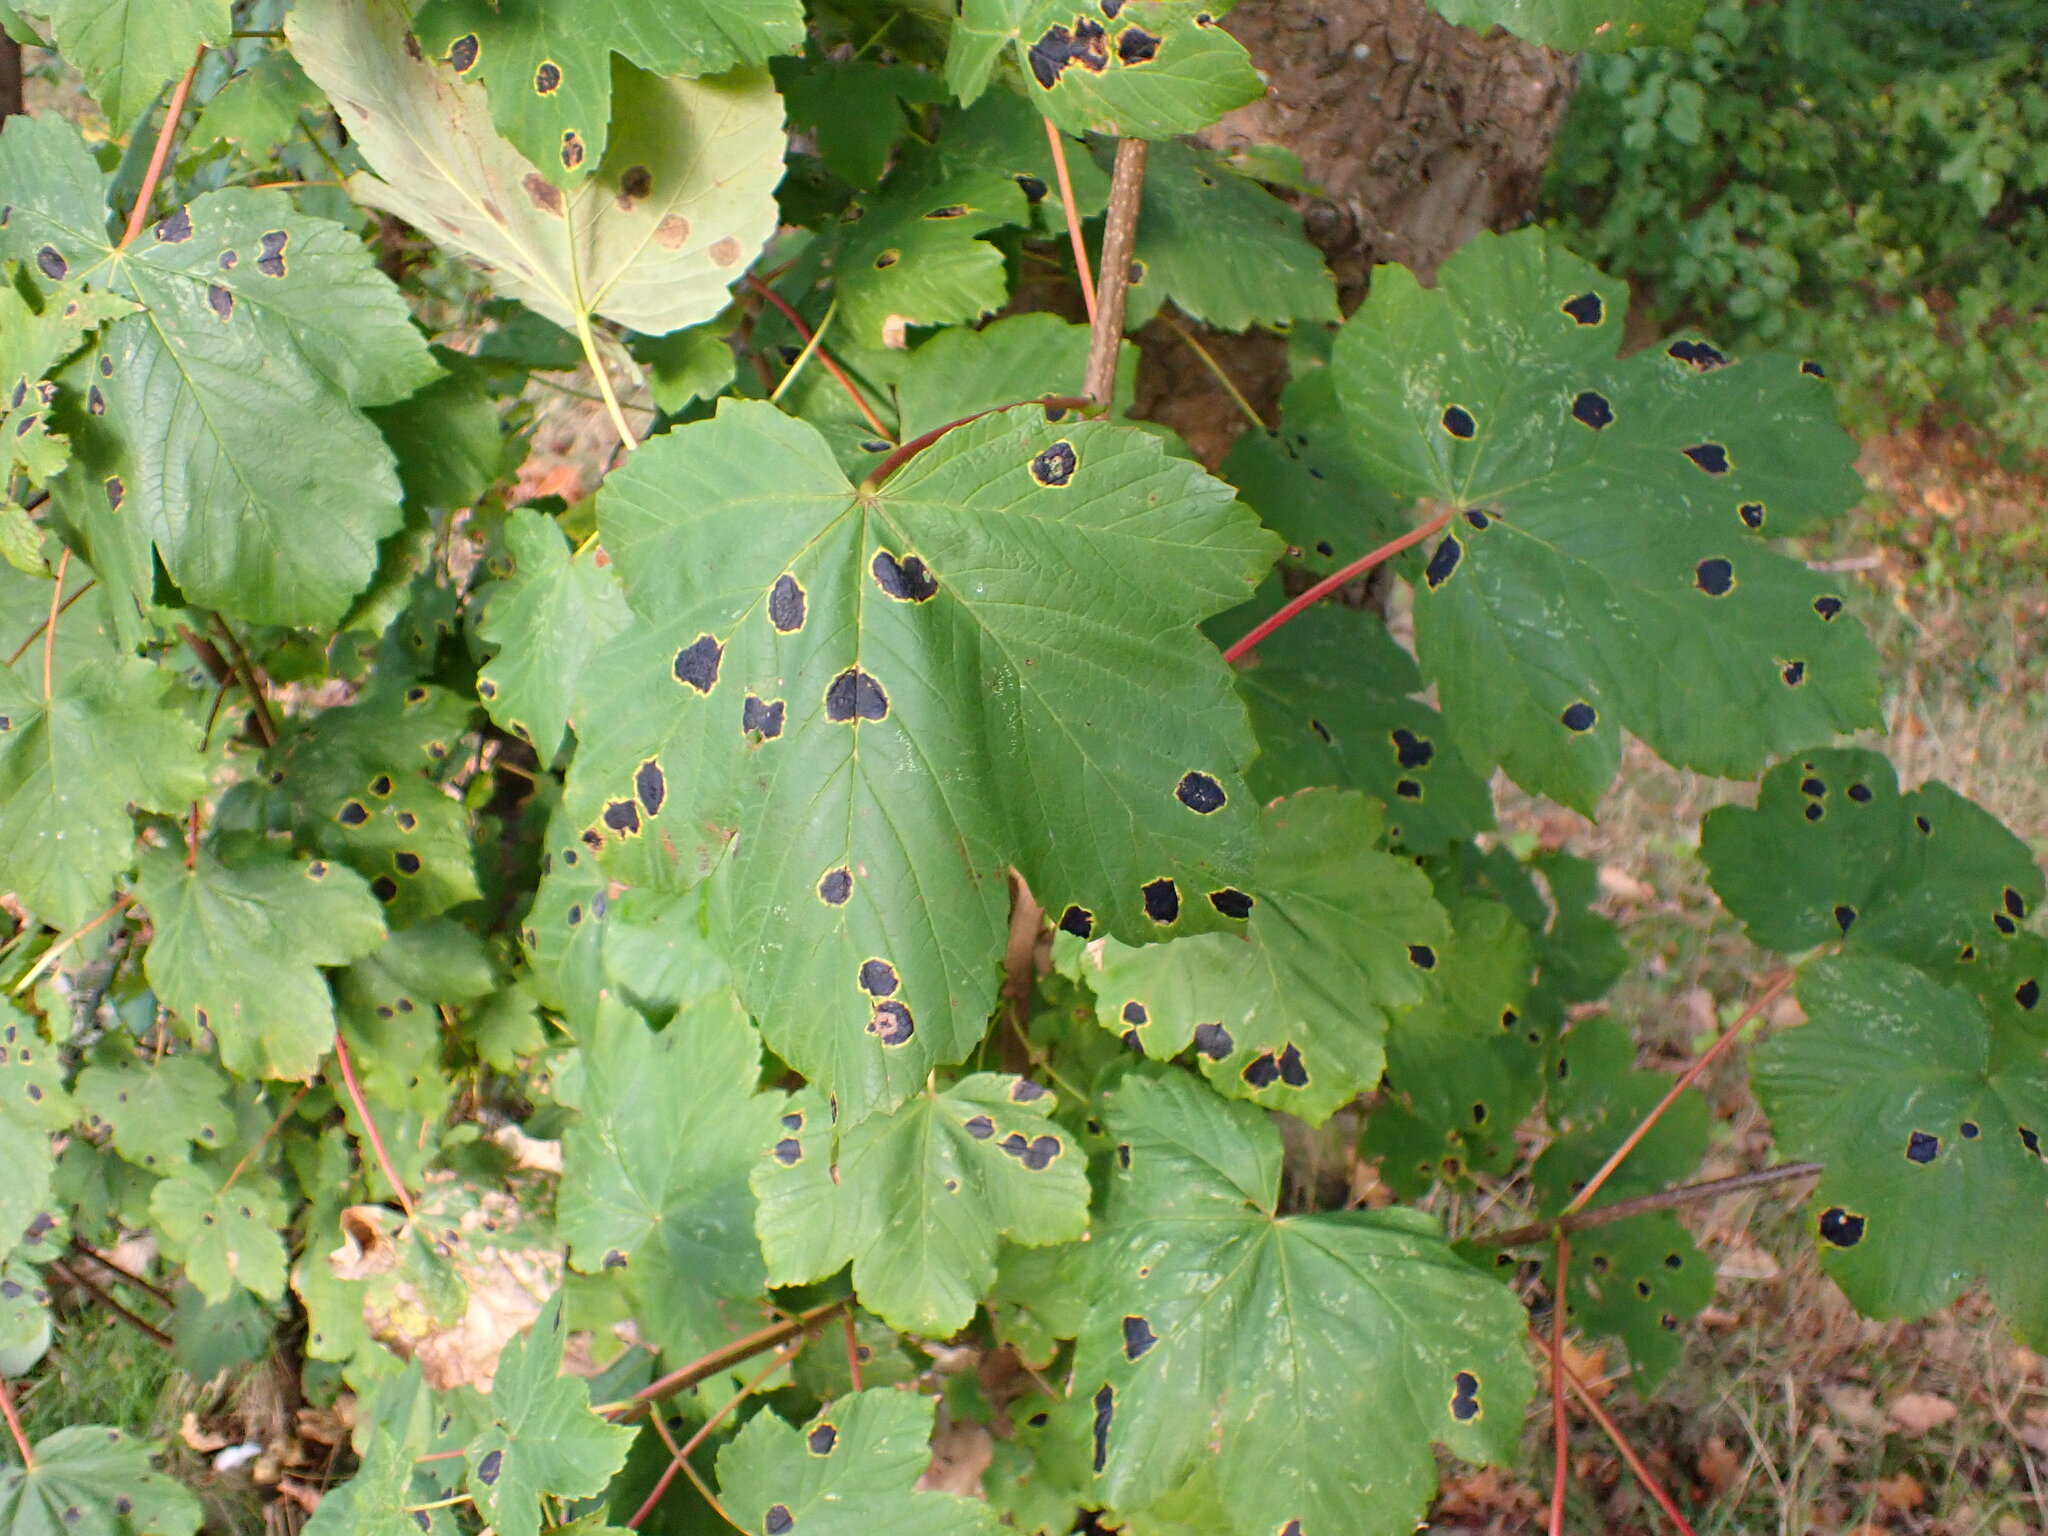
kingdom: Plantae
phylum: Tracheophyta
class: Magnoliopsida
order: Sapindales
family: Sapindaceae
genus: Acer
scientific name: Acer pseudoplatanus
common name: Sycamore
